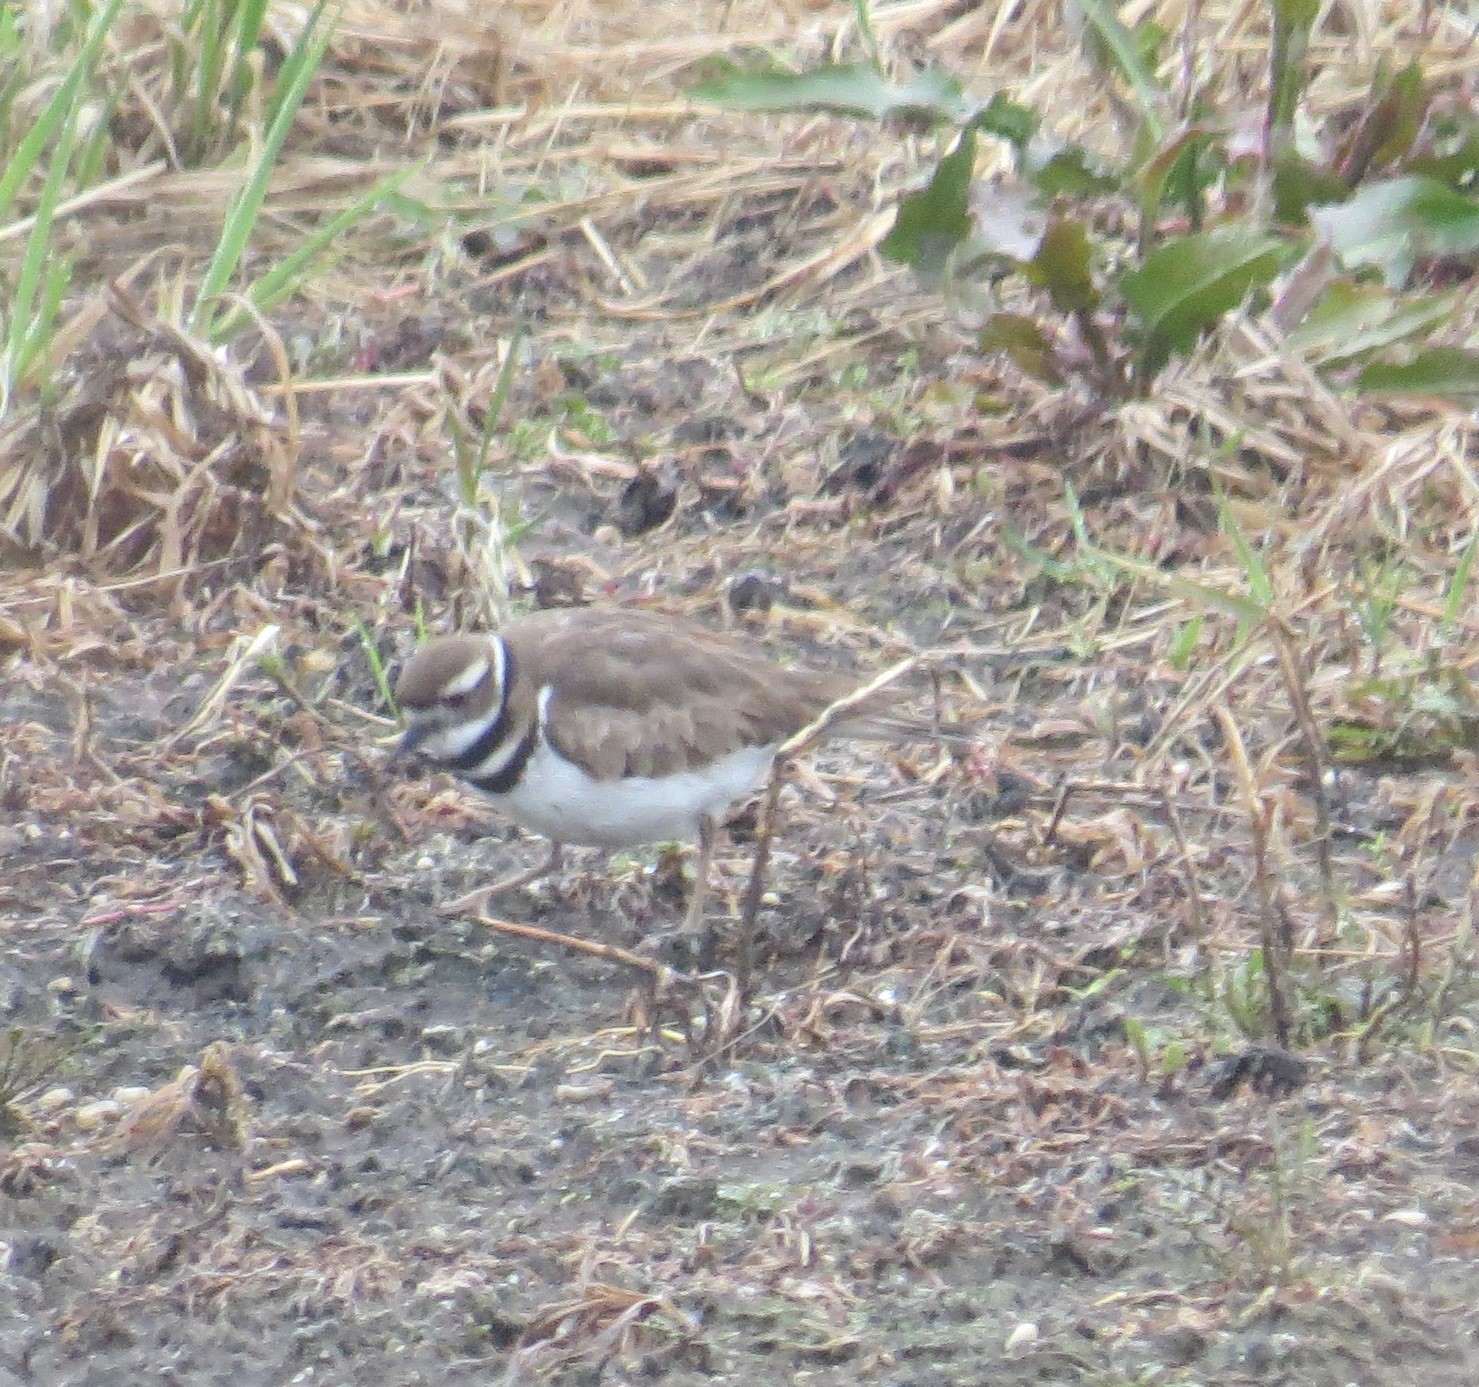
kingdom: Animalia
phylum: Chordata
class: Aves
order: Charadriiformes
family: Charadriidae
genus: Charadrius
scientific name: Charadrius vociferus
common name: Killdeer
